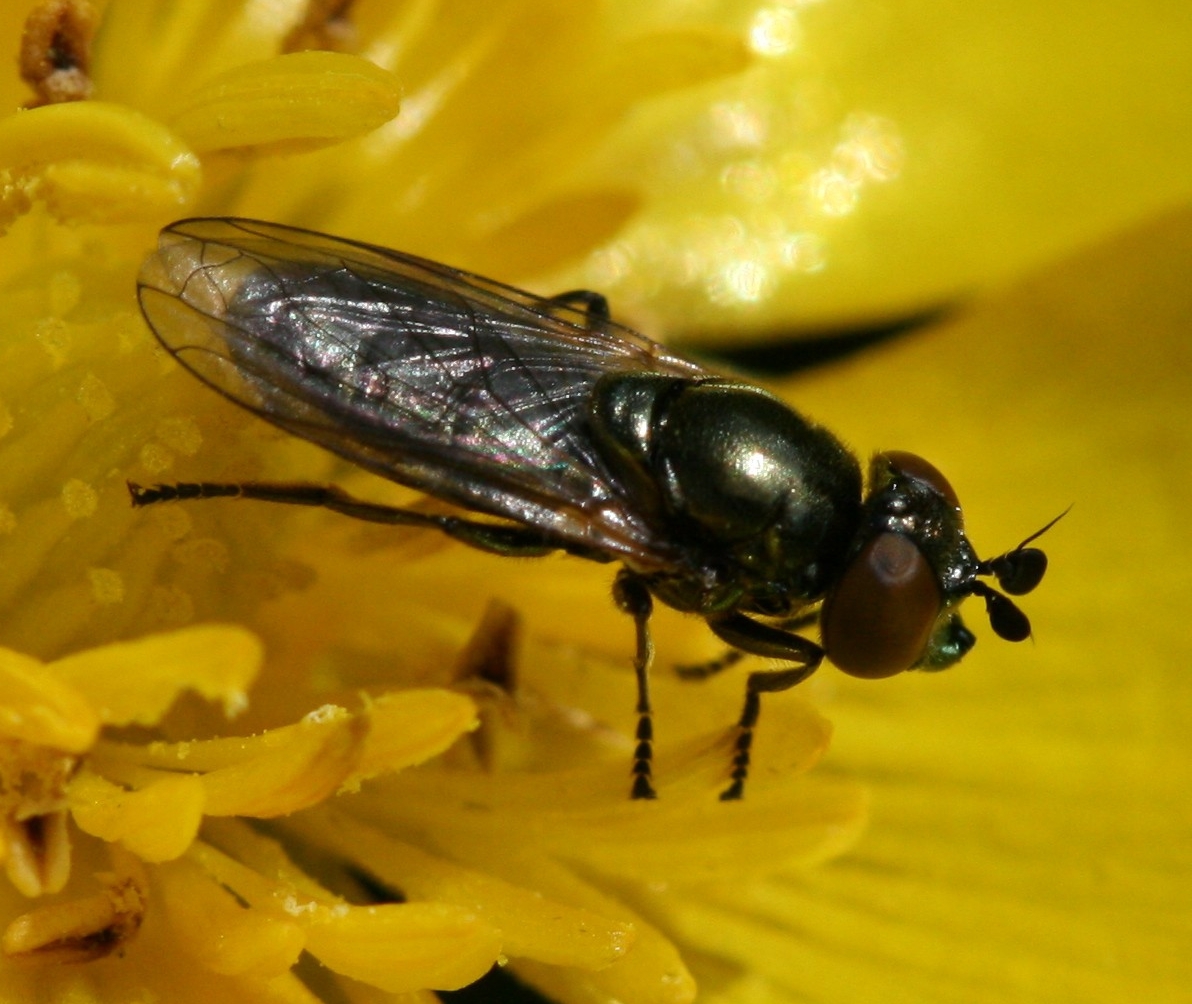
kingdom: Animalia
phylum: Arthropoda
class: Insecta
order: Diptera
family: Syrphidae
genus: Lejogaster
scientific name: Lejogaster metallina
